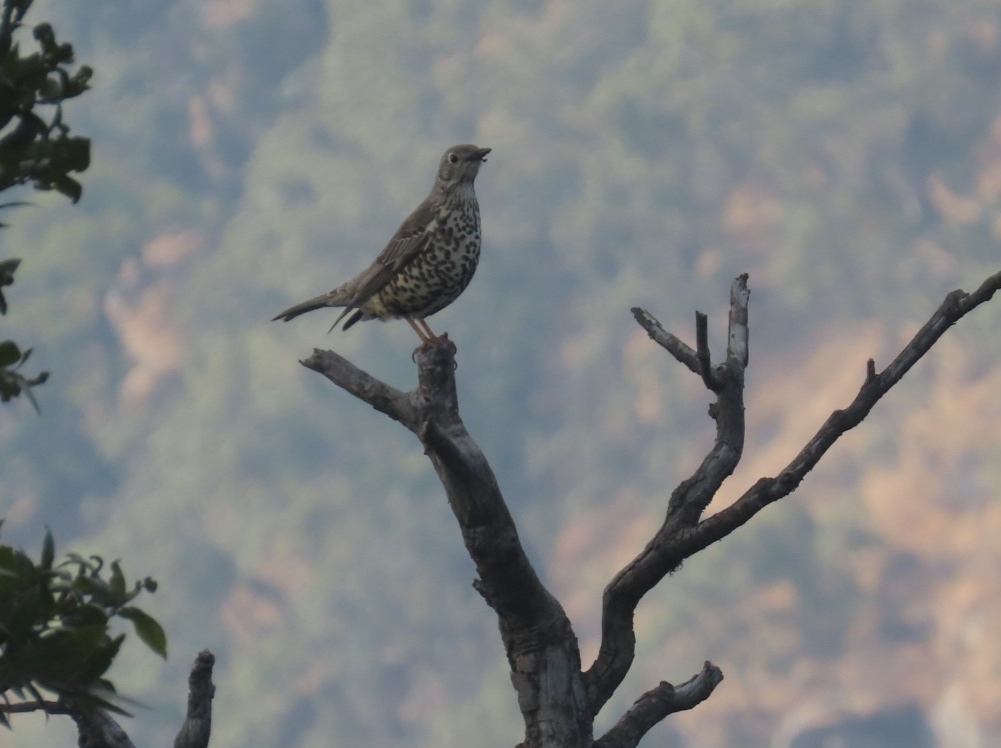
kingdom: Animalia
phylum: Chordata
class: Aves
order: Passeriformes
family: Turdidae
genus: Turdus
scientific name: Turdus viscivorus
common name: Mistle thrush
